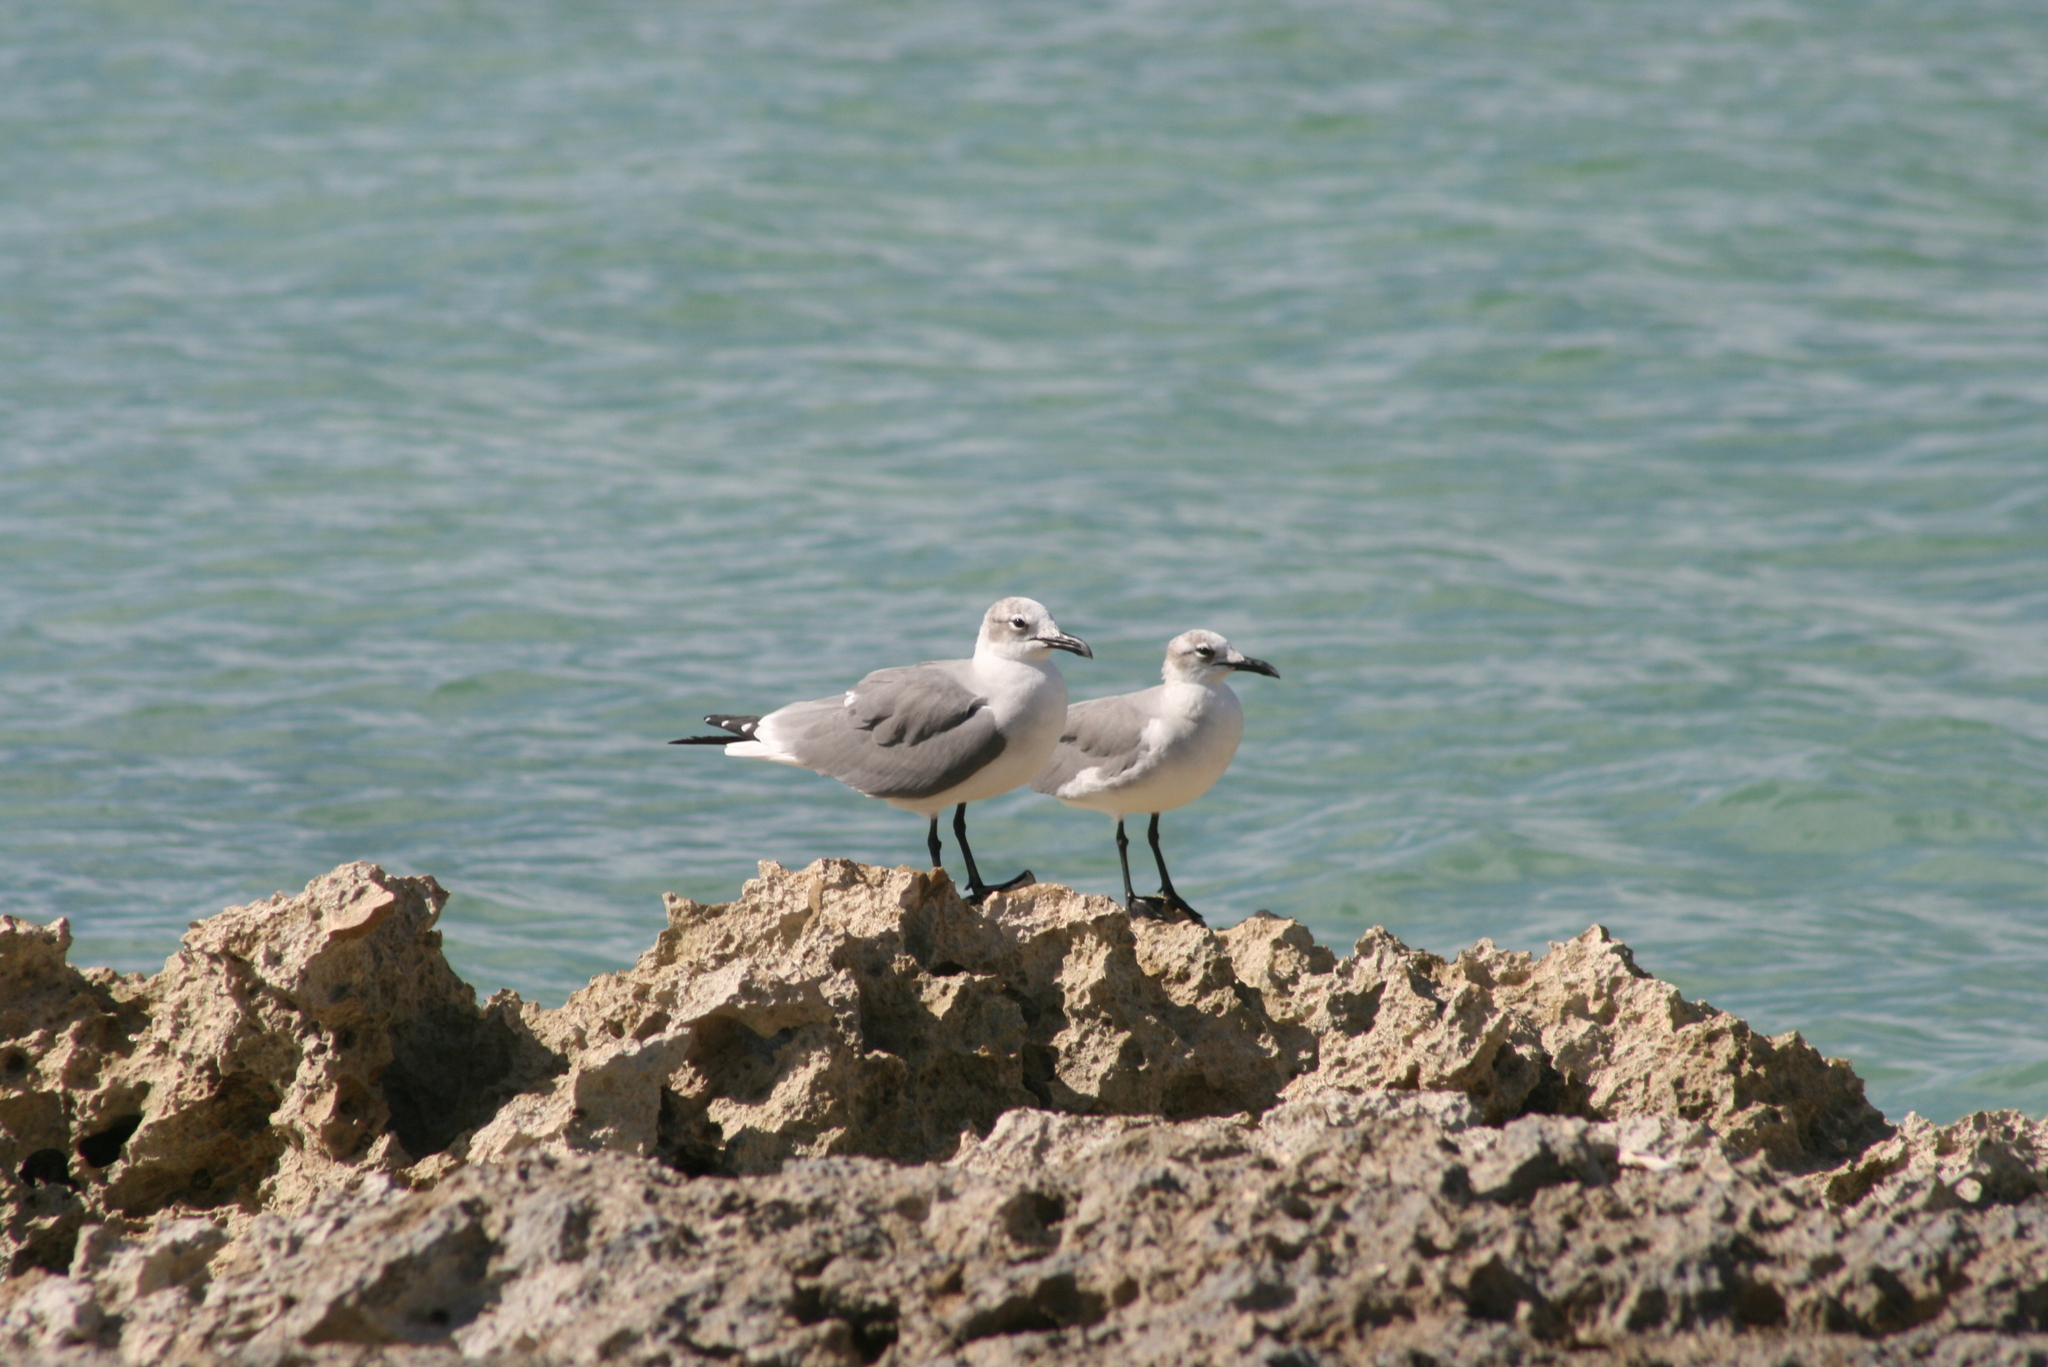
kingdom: Animalia
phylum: Chordata
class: Aves
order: Charadriiformes
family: Laridae
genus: Leucophaeus
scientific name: Leucophaeus atricilla
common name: Laughing gull
